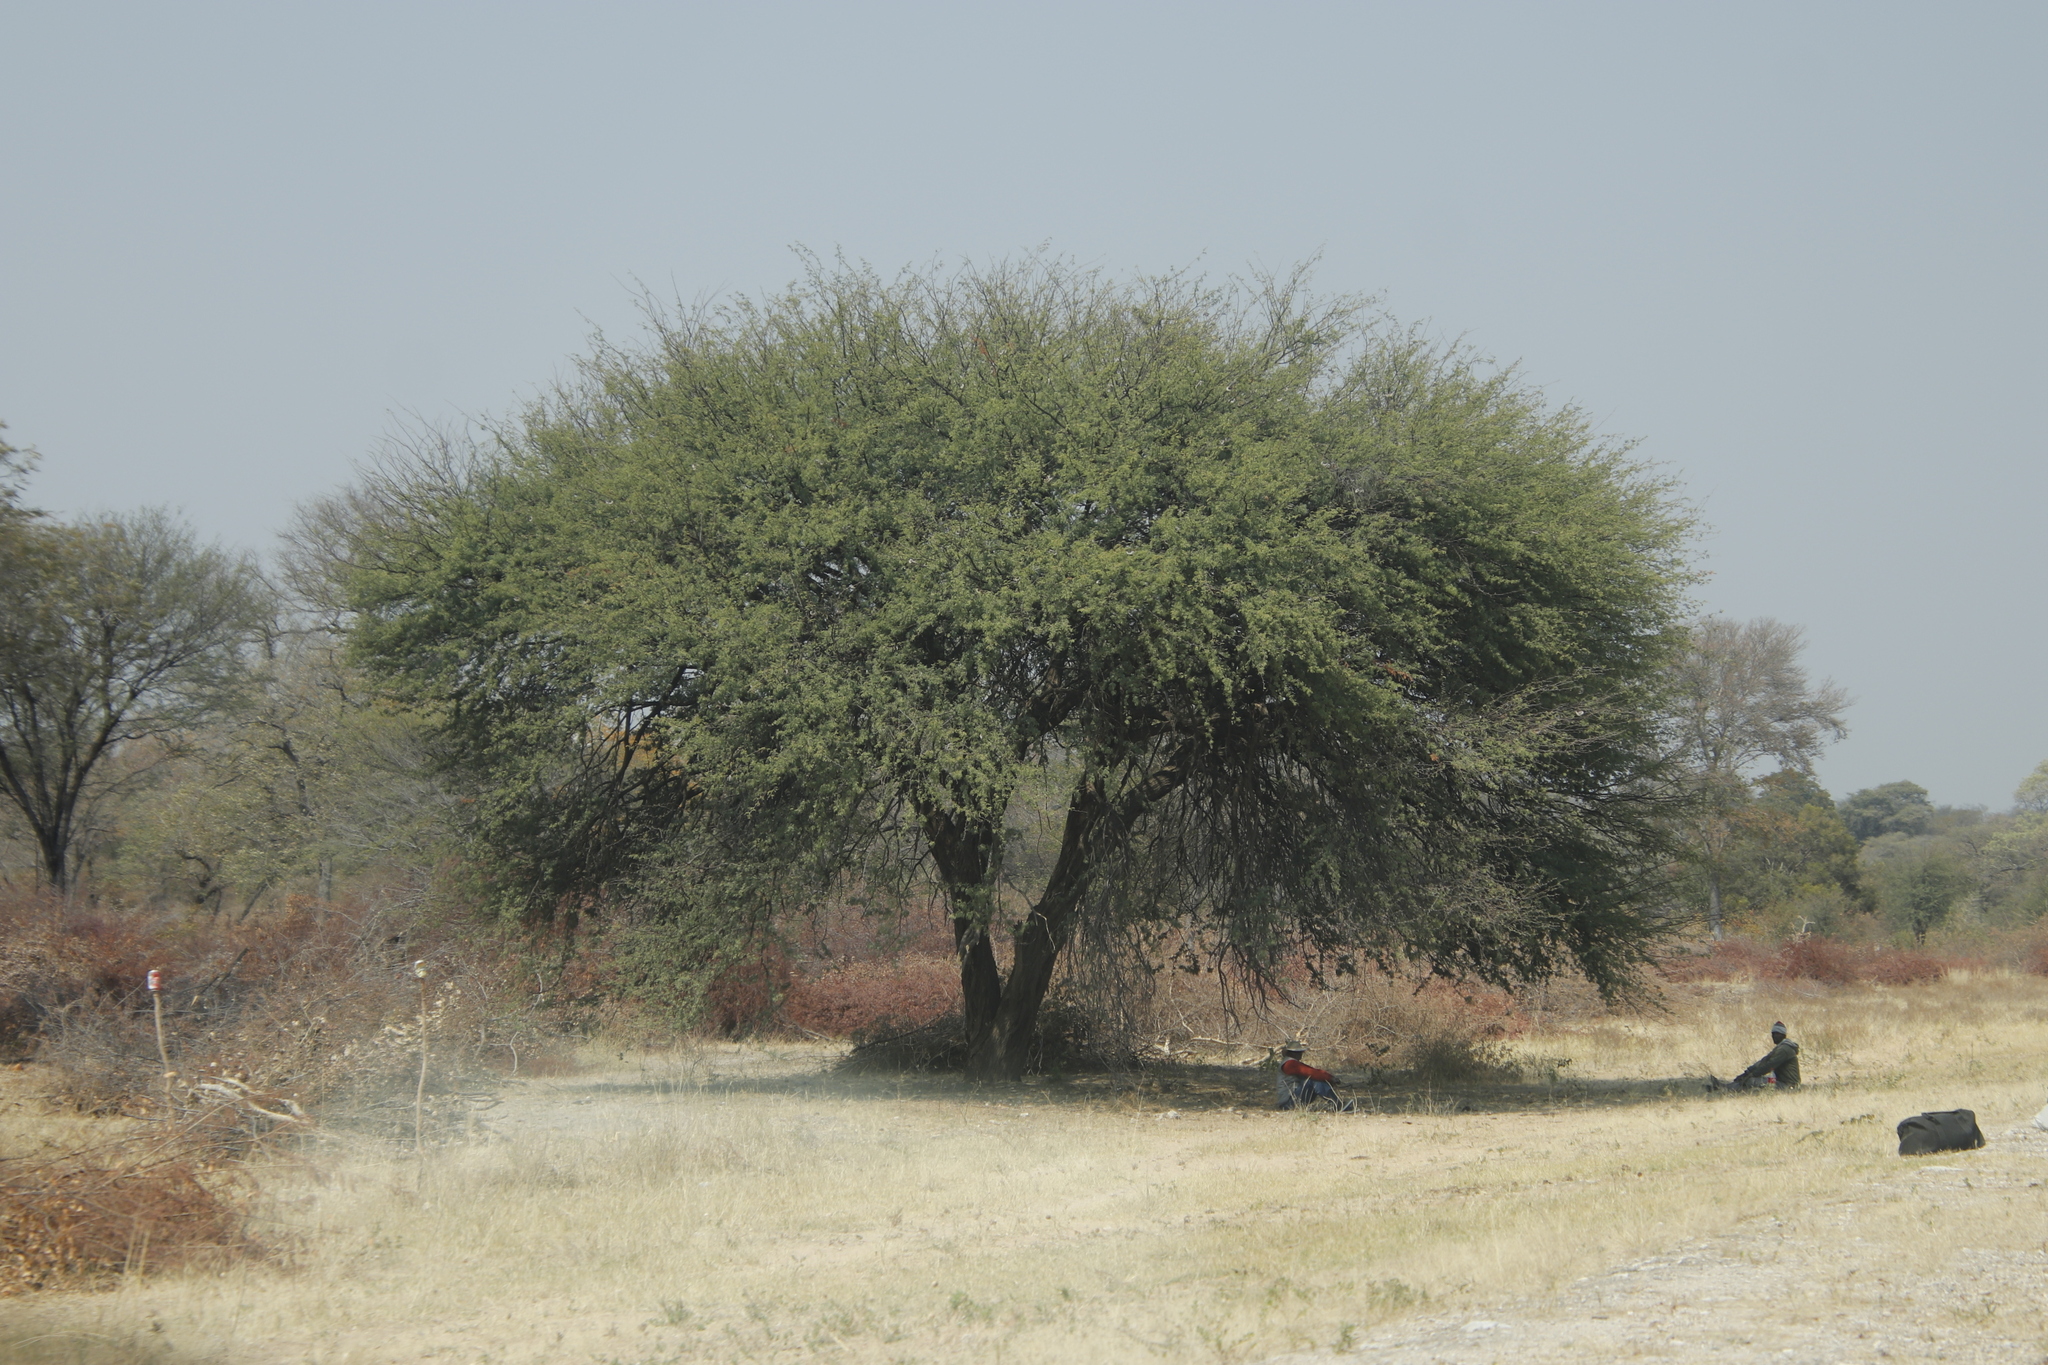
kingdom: Plantae
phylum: Tracheophyta
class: Magnoliopsida
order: Fabales
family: Fabaceae
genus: Vachellia
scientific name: Vachellia erioloba
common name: Camel thorn
